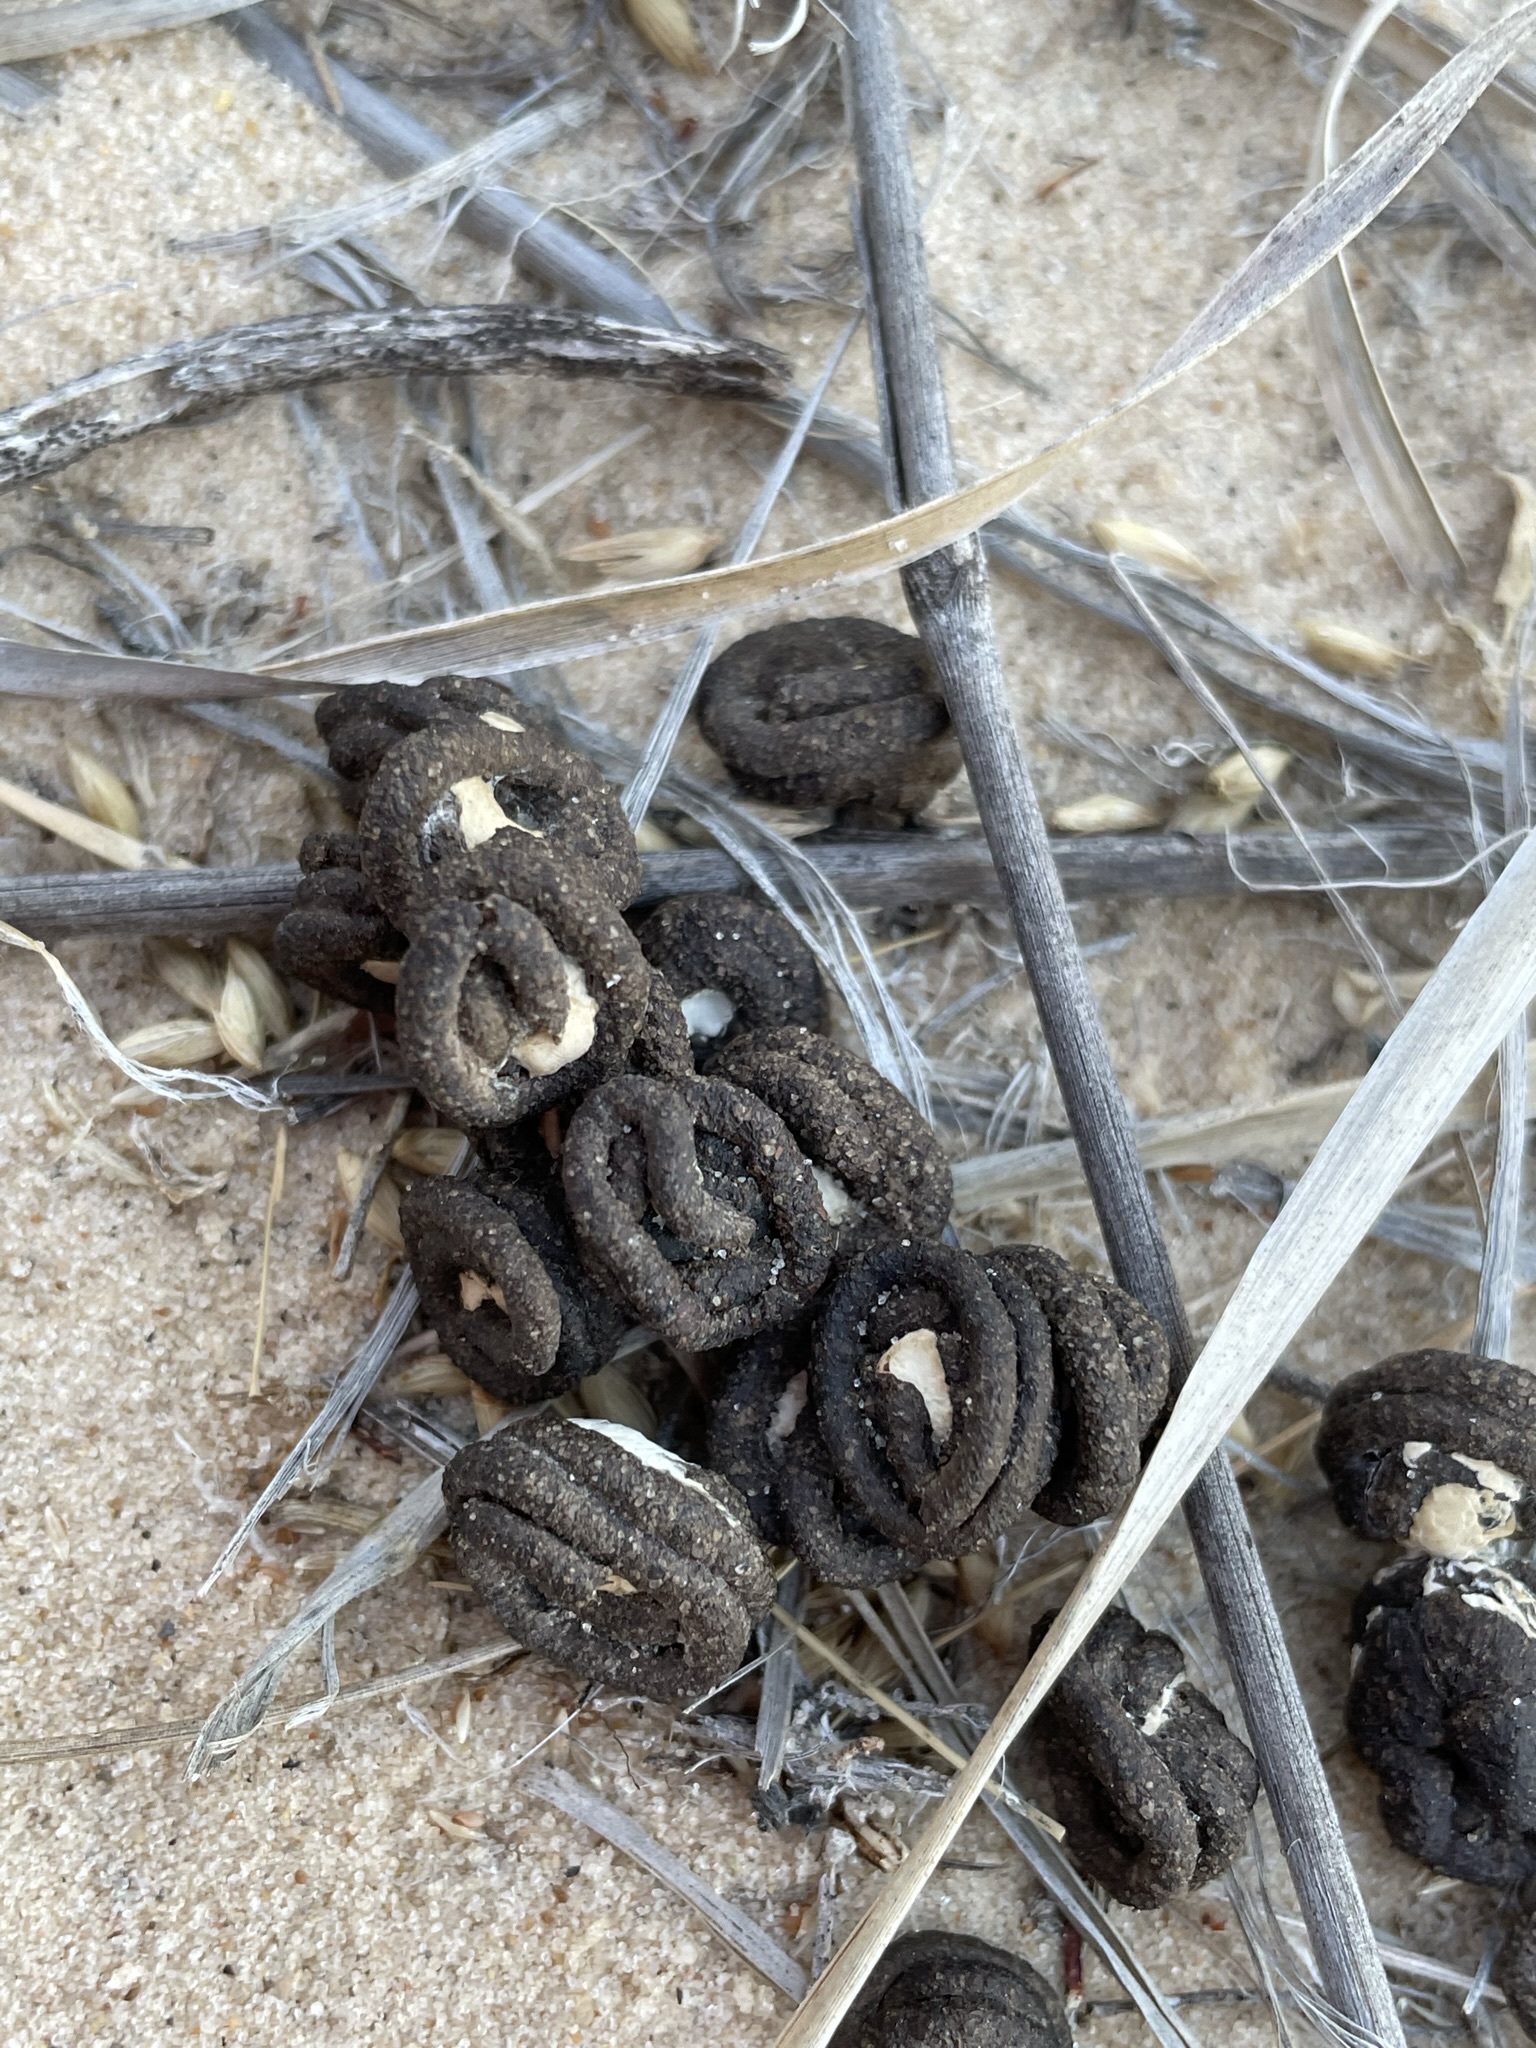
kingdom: Animalia
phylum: Chordata
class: Aves
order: Columbiformes
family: Columbidae
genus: Zenaida
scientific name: Zenaida macroura
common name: Mourning dove
